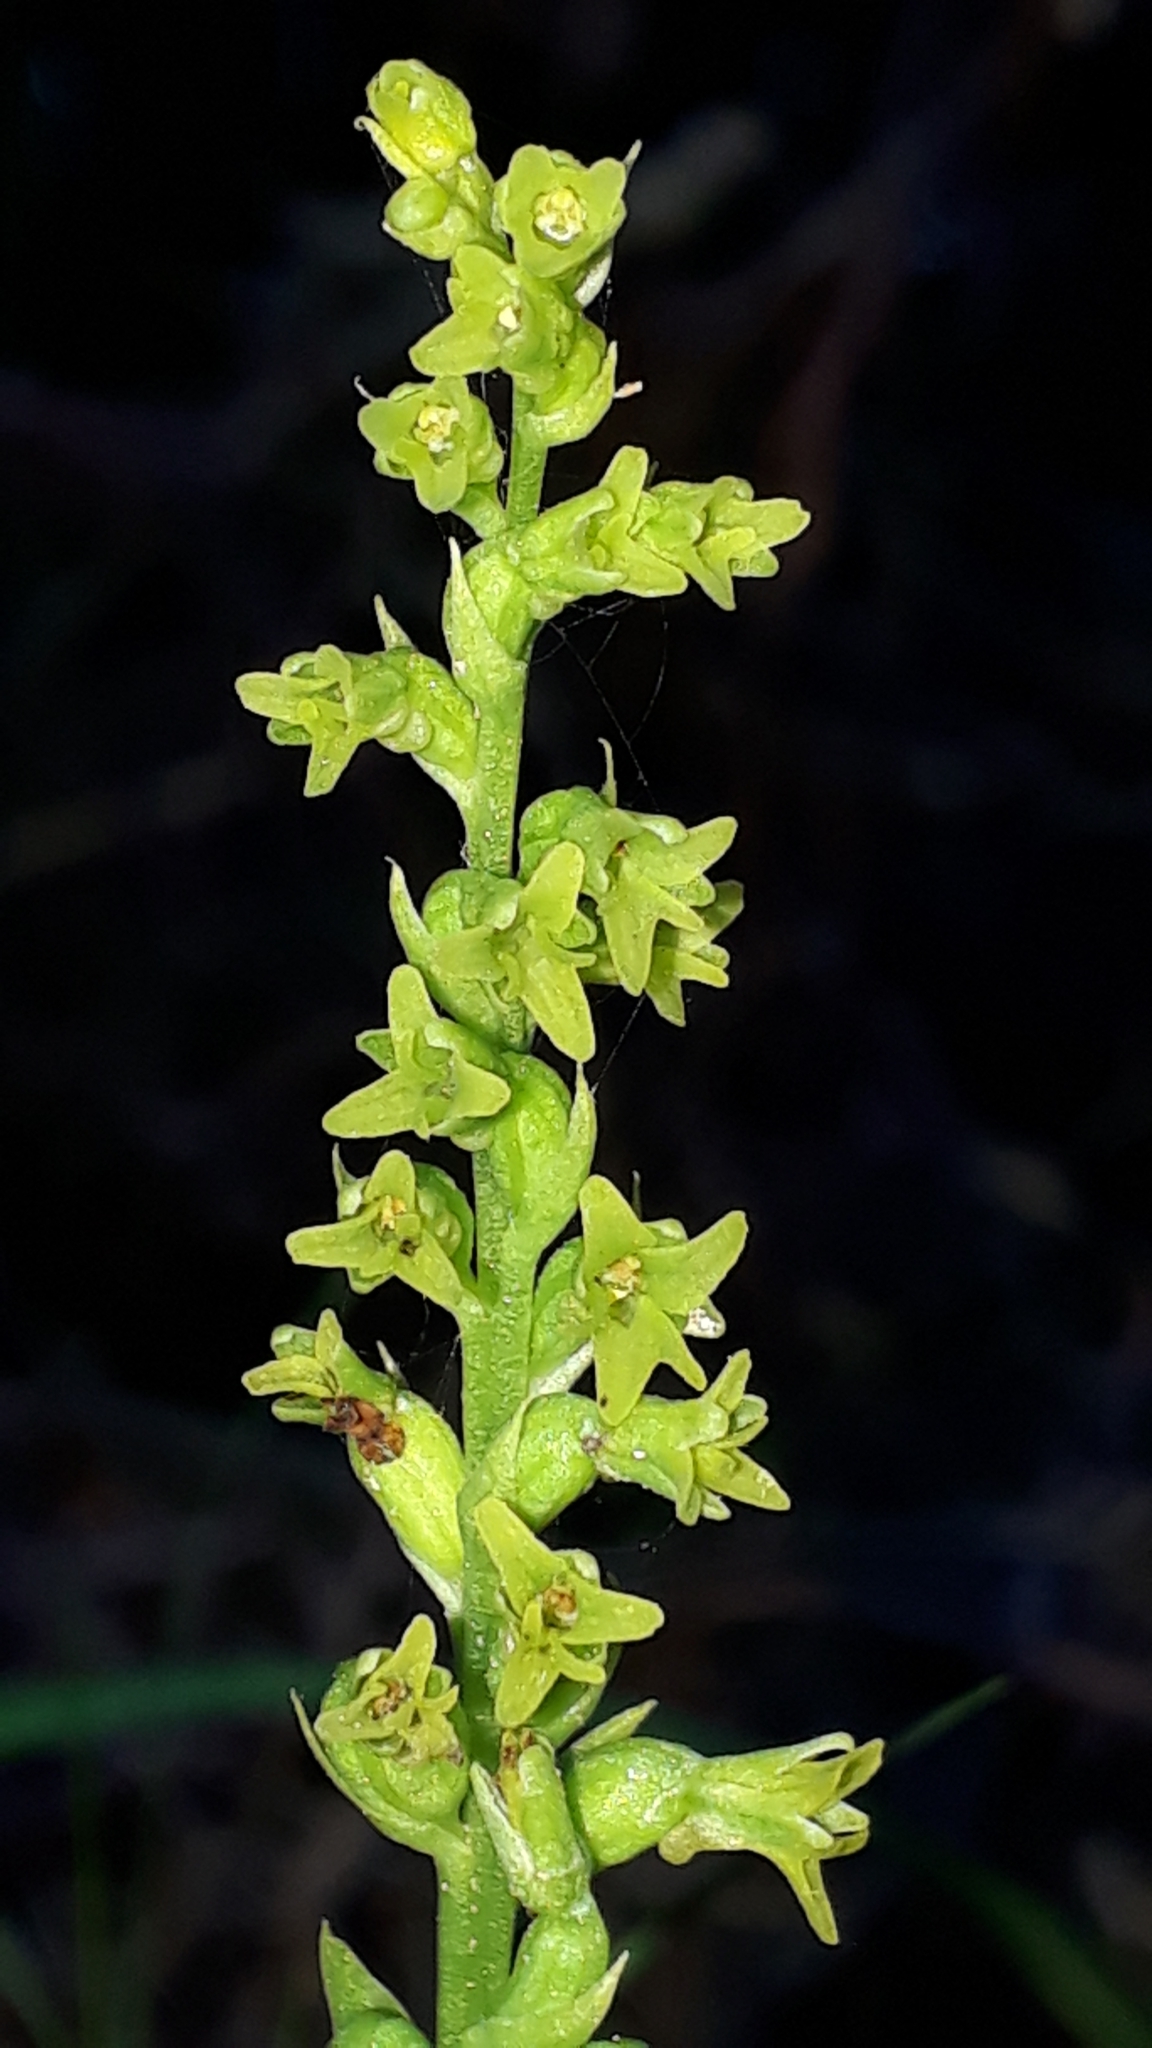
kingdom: Plantae
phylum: Tracheophyta
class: Liliopsida
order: Asparagales
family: Orchidaceae
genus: Gennaria
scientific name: Gennaria diphylla
